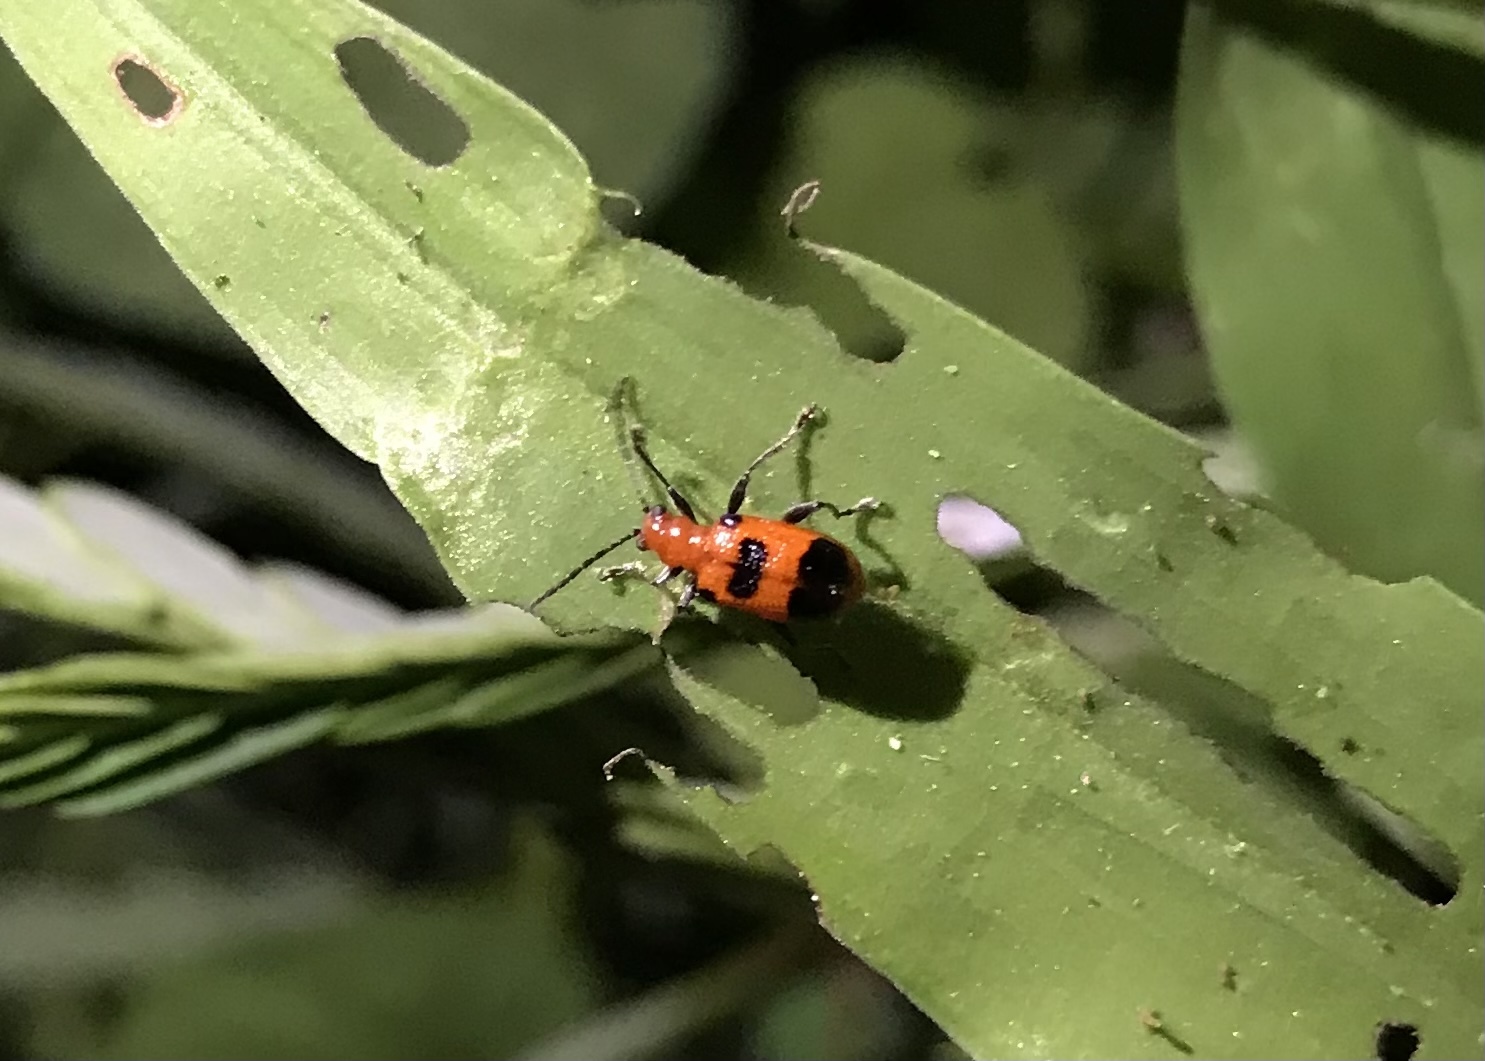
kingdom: Animalia
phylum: Arthropoda
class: Insecta
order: Coleoptera
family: Chrysomelidae
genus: Neolema
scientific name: Neolema sexpunctata
